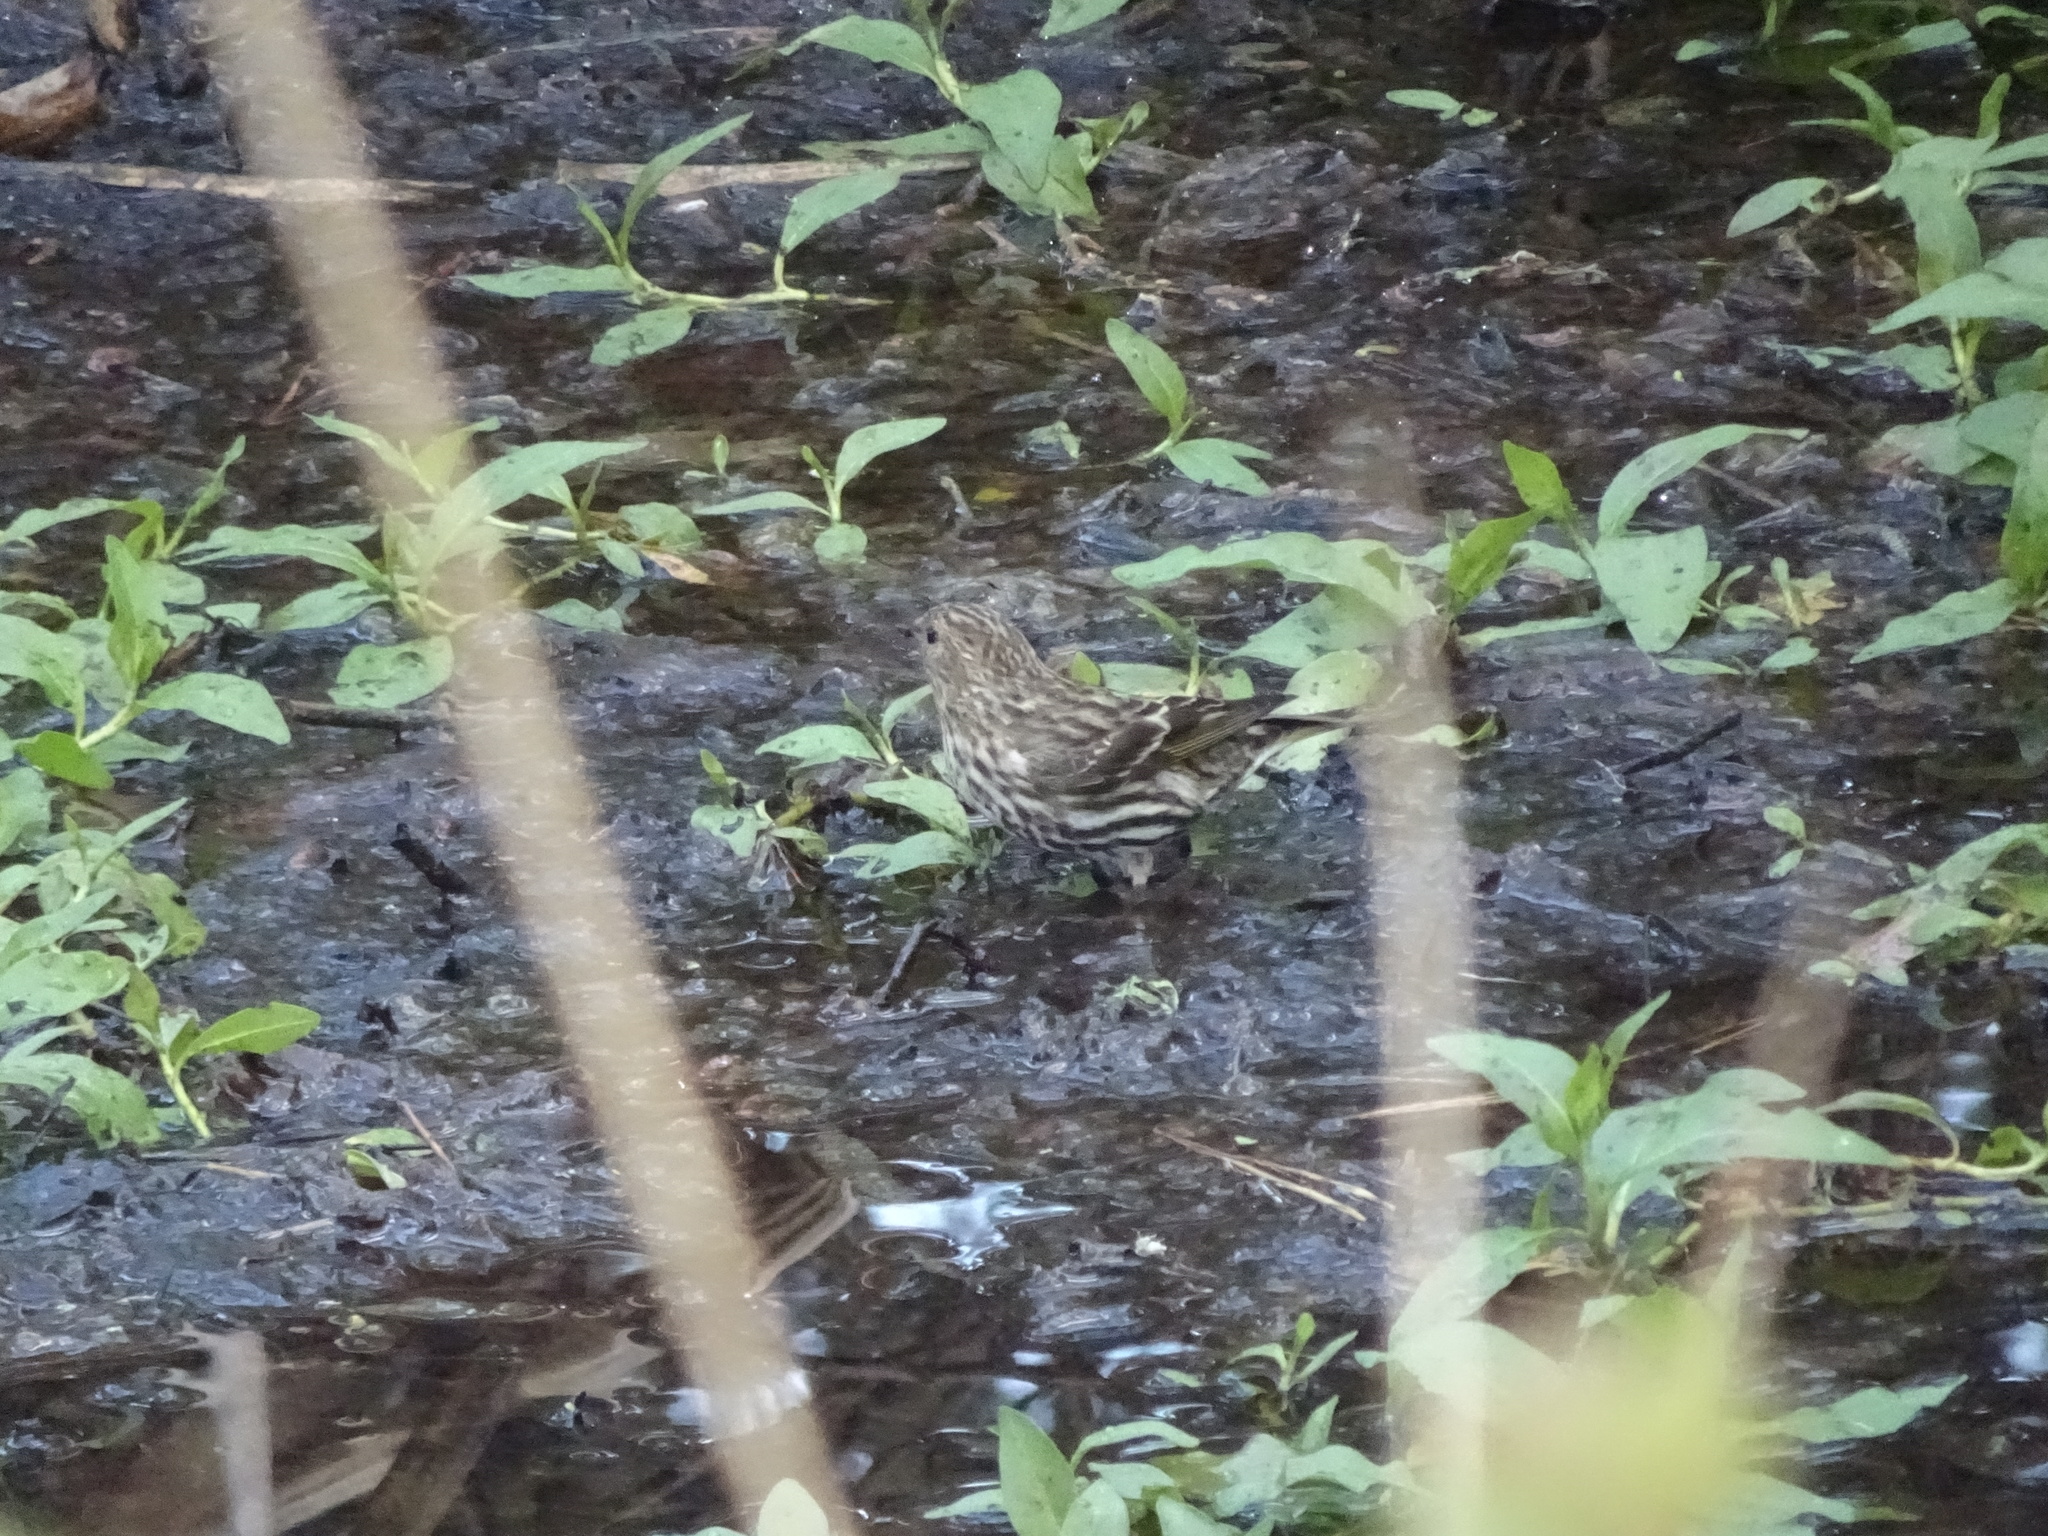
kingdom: Animalia
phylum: Chordata
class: Aves
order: Passeriformes
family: Fringillidae
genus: Spinus
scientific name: Spinus pinus
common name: Pine siskin
